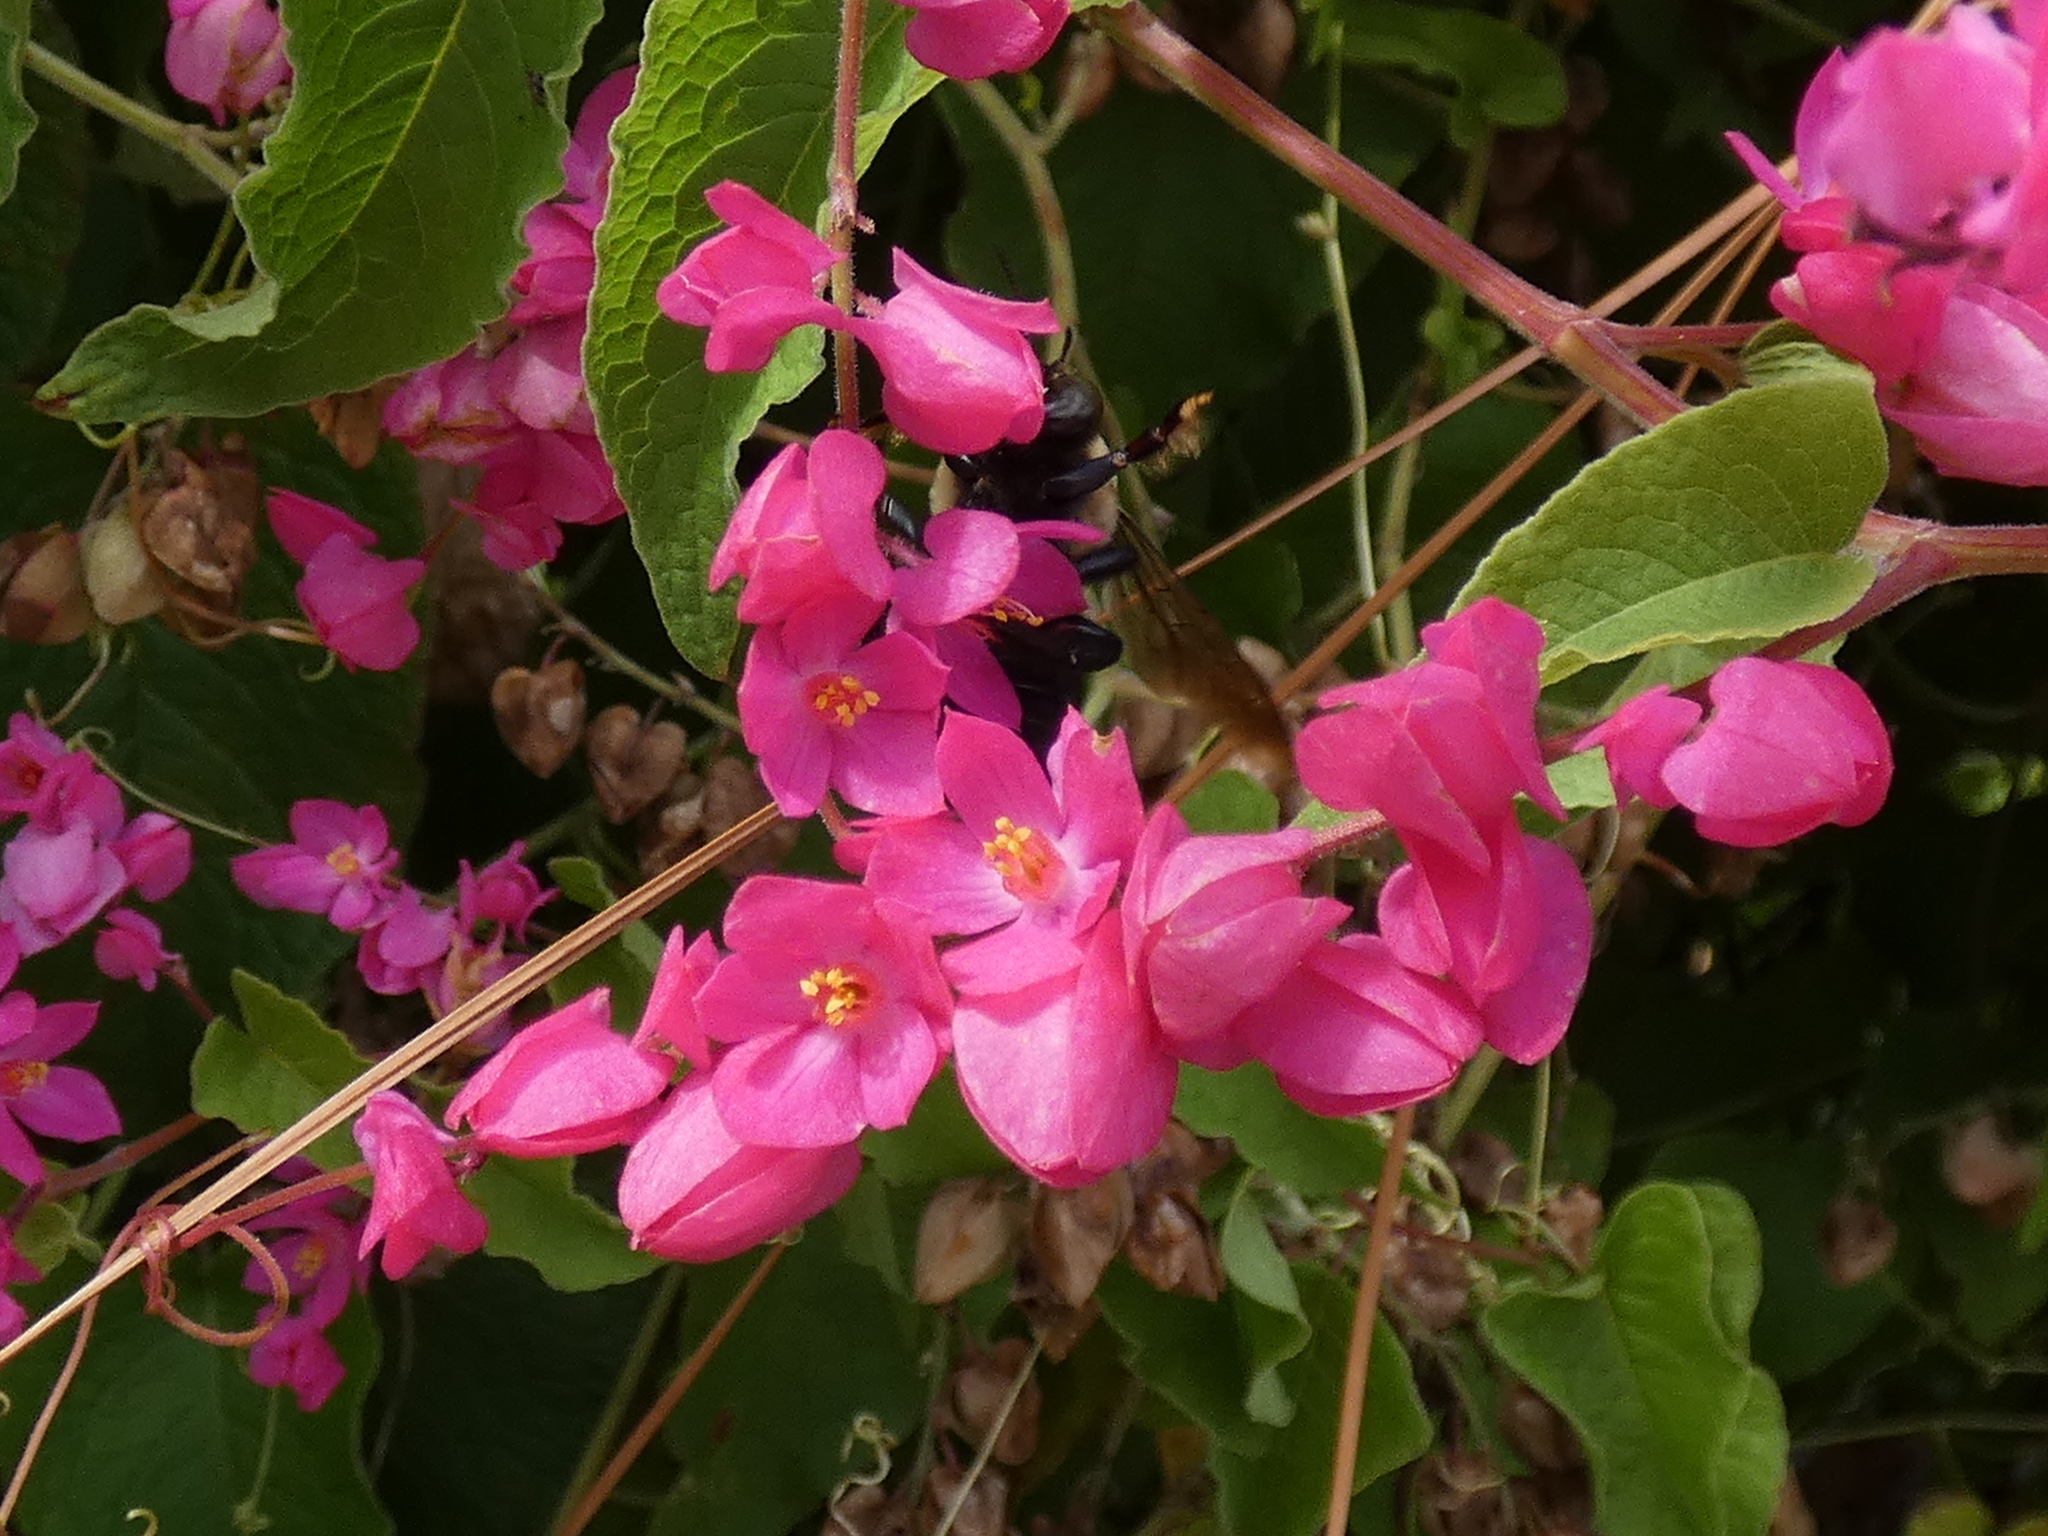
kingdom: Plantae
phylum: Tracheophyta
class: Magnoliopsida
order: Caryophyllales
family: Polygonaceae
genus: Antigonon
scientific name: Antigonon leptopus
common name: Coral vine
